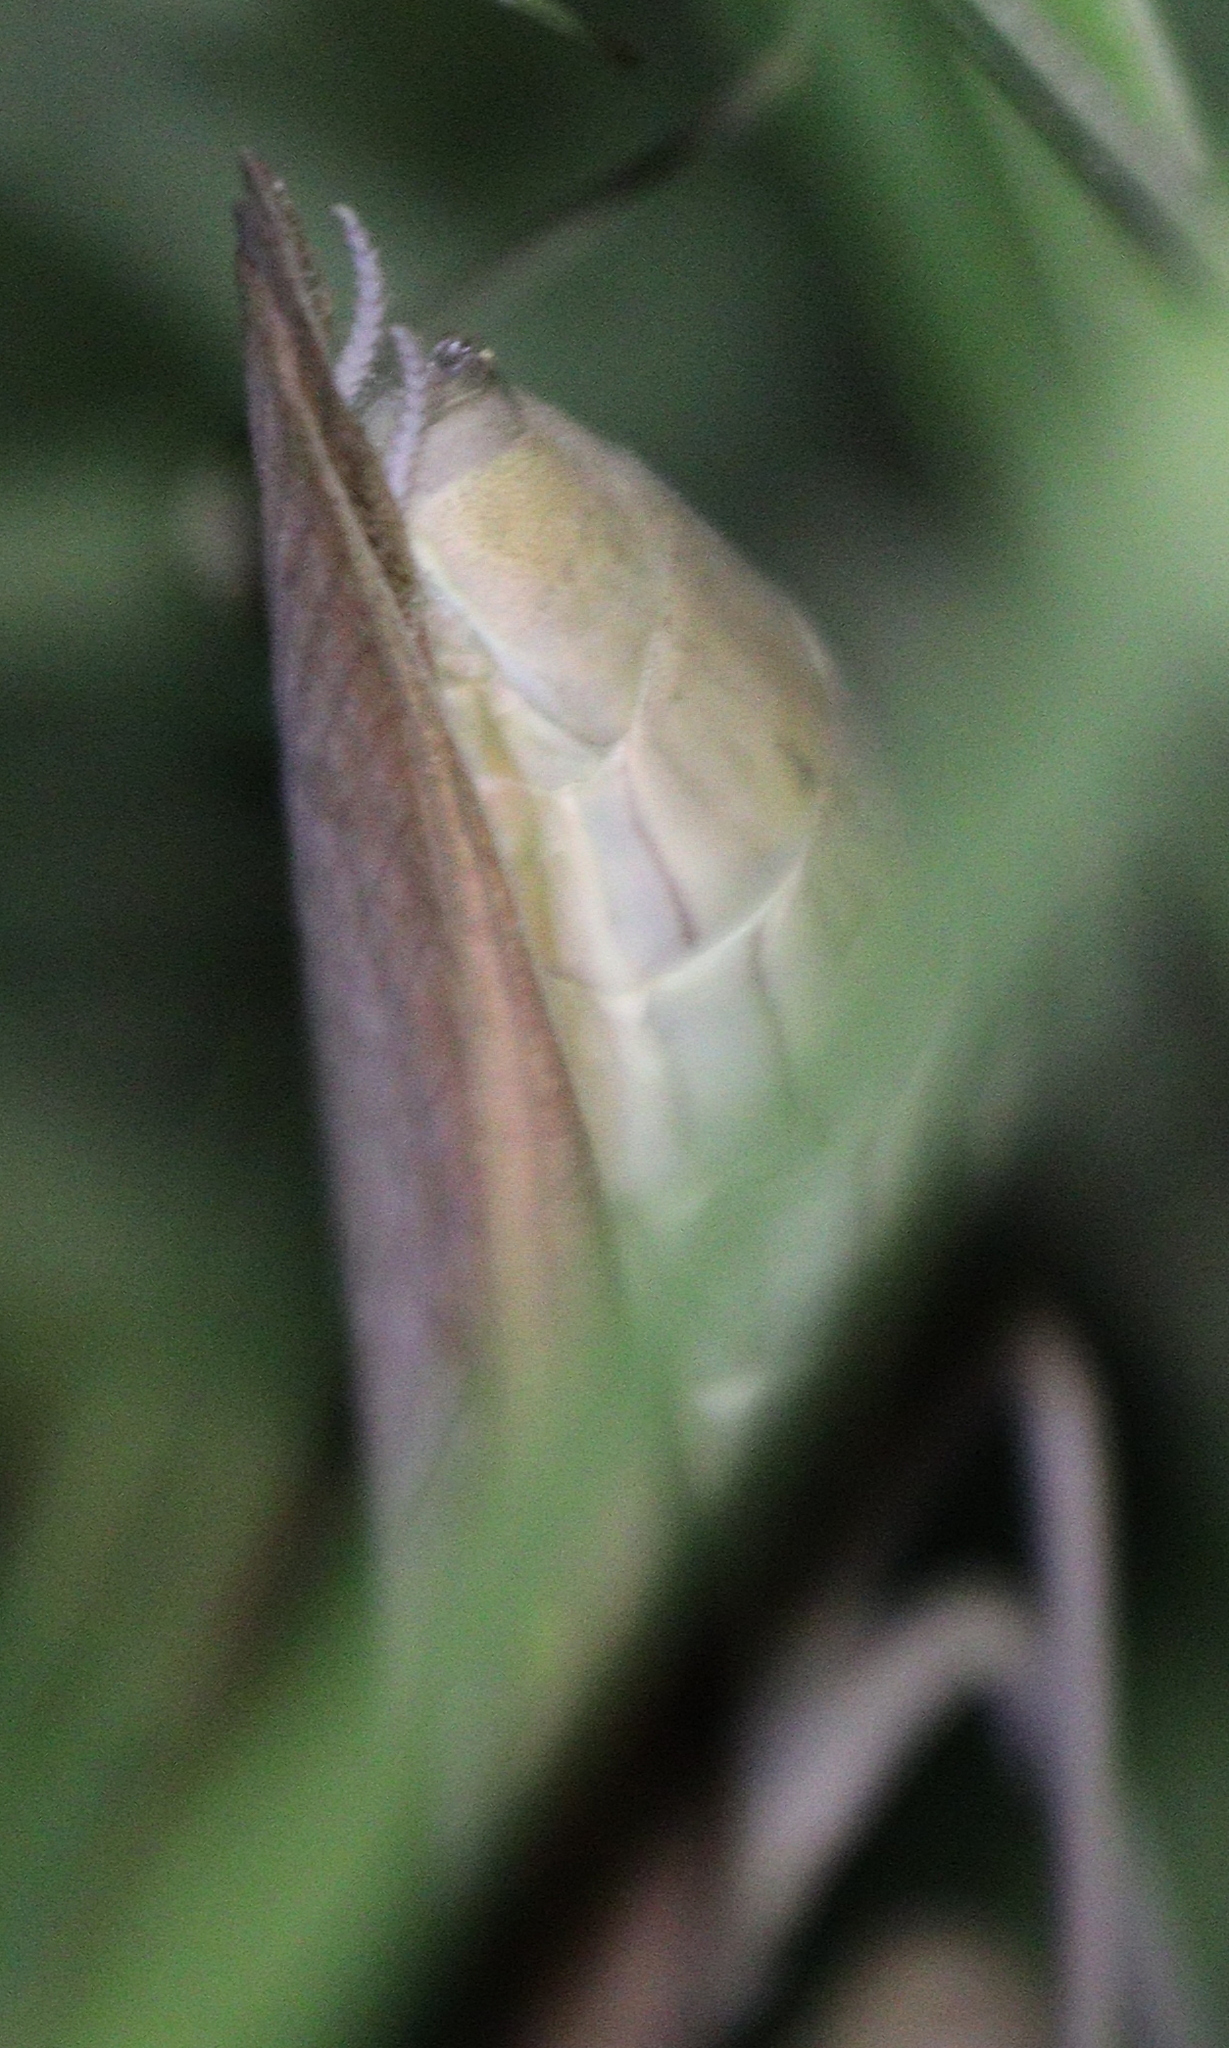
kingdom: Animalia
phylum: Arthropoda
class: Insecta
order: Mantodea
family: Mantidae
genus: Mantis
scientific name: Mantis religiosa
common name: Praying mantis
